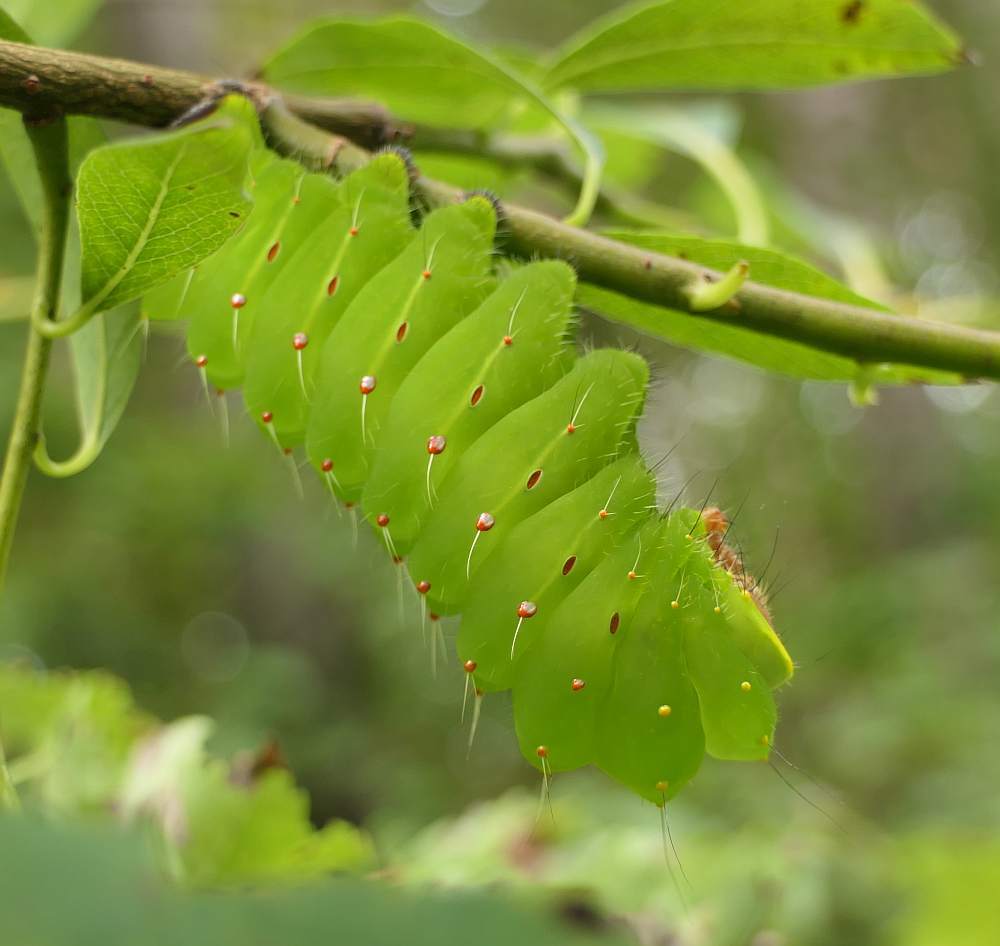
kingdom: Animalia
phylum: Arthropoda
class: Insecta
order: Lepidoptera
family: Saturniidae
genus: Antheraea
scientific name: Antheraea polyphemus
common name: Polyphemus moth
